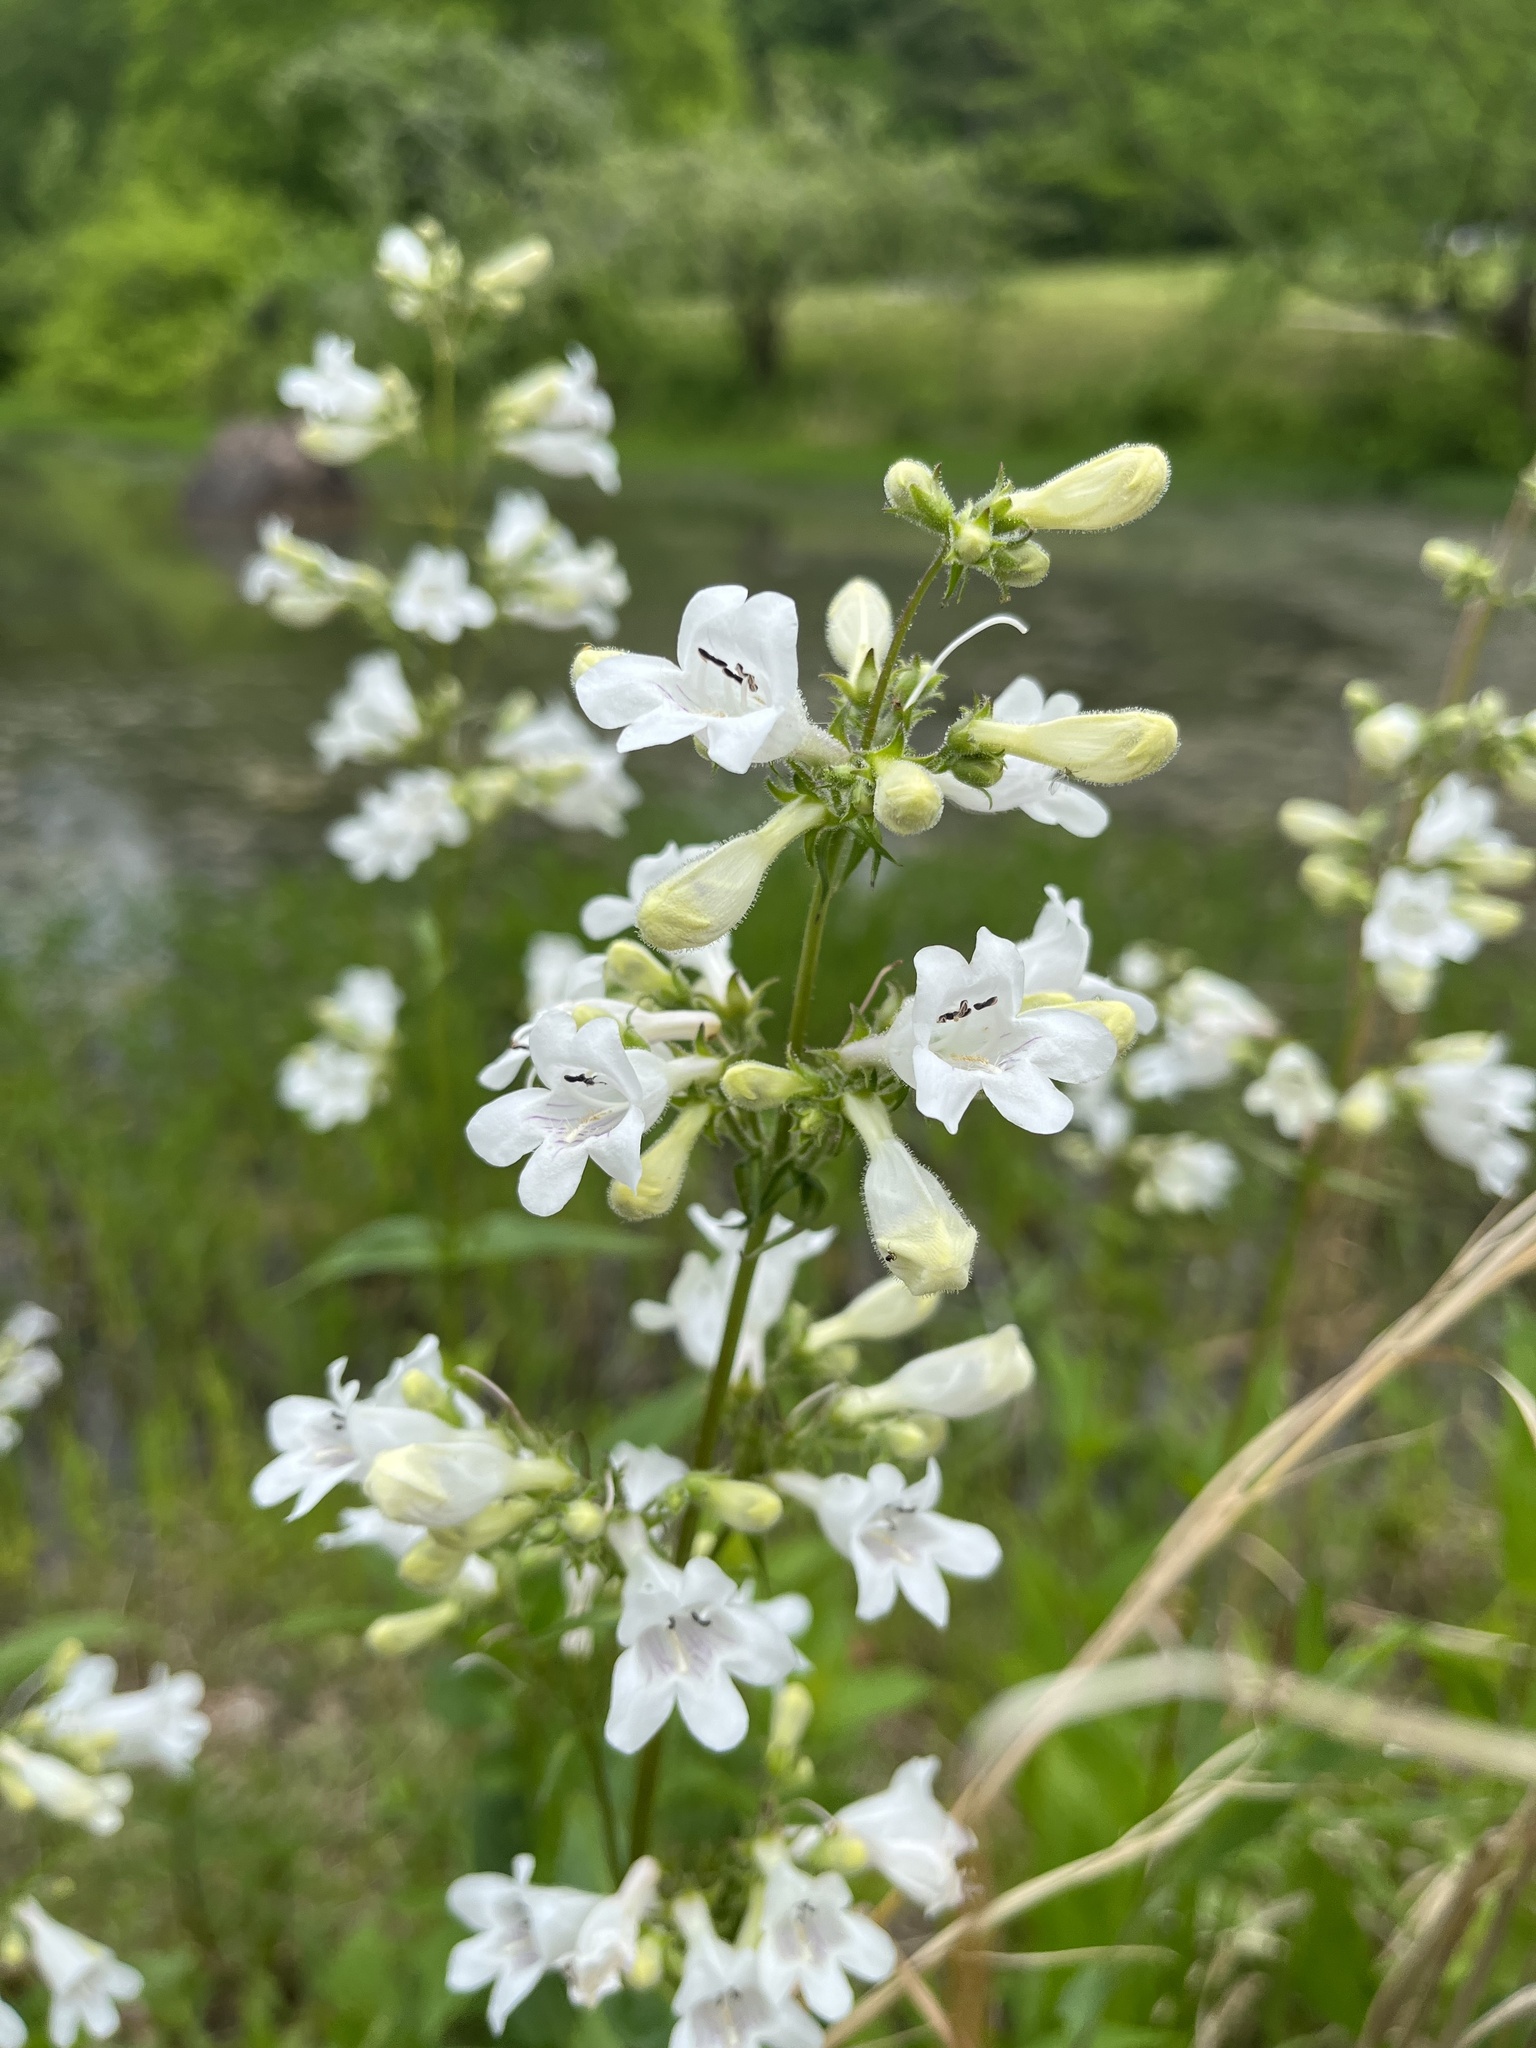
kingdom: Plantae
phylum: Tracheophyta
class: Magnoliopsida
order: Lamiales
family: Plantaginaceae
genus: Penstemon
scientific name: Penstemon digitalis
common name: Foxglove beardtongue
